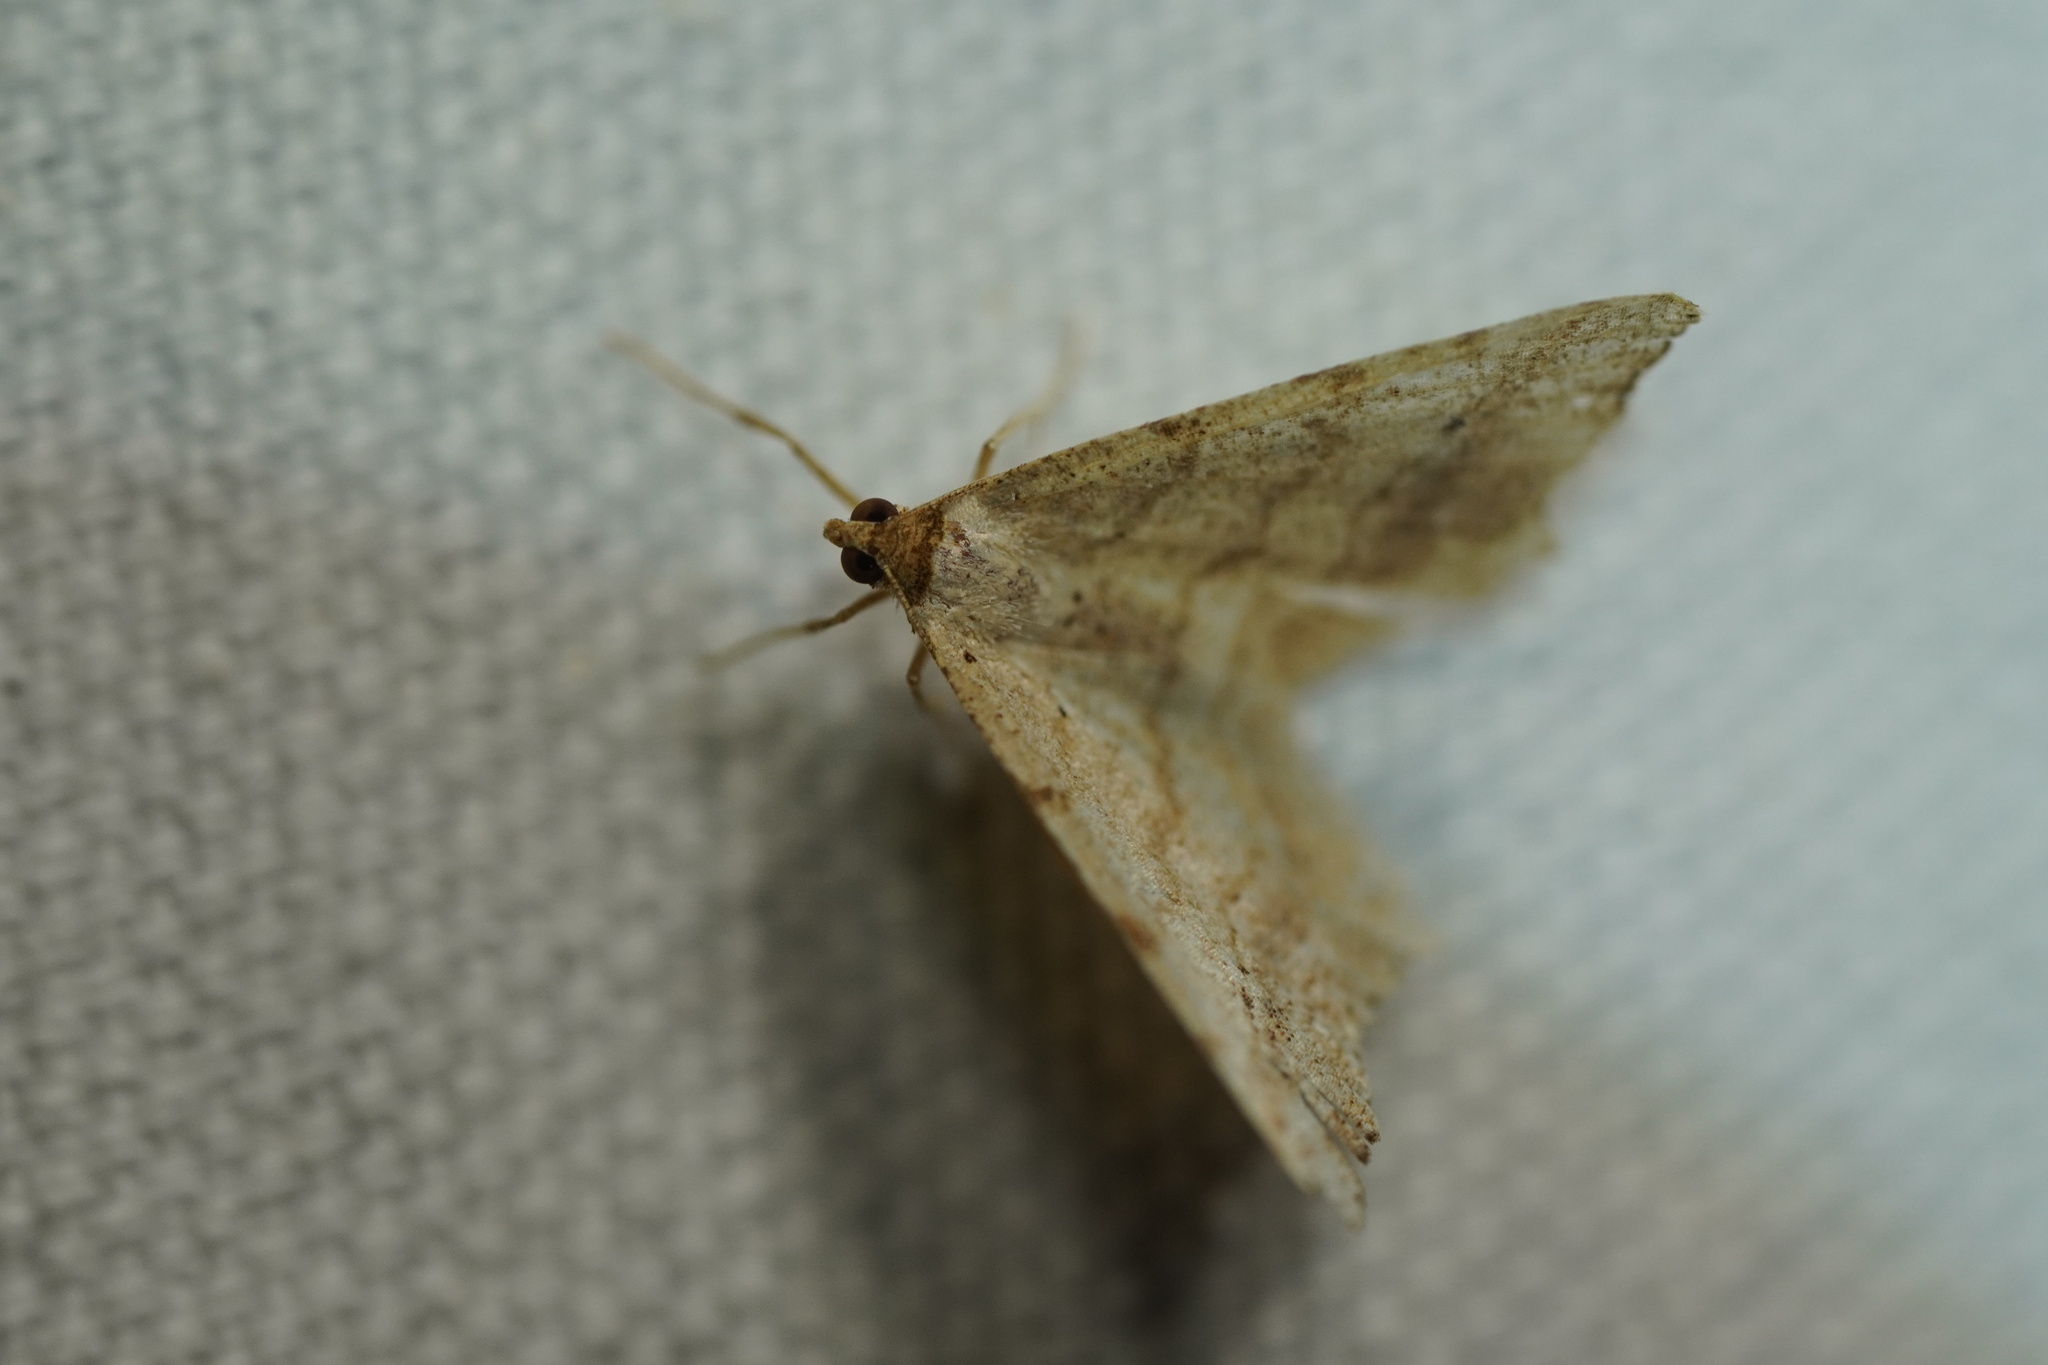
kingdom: Animalia
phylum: Arthropoda
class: Insecta
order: Lepidoptera
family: Geometridae
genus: Macaria
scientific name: Macaria aemulataria
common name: Common angle
